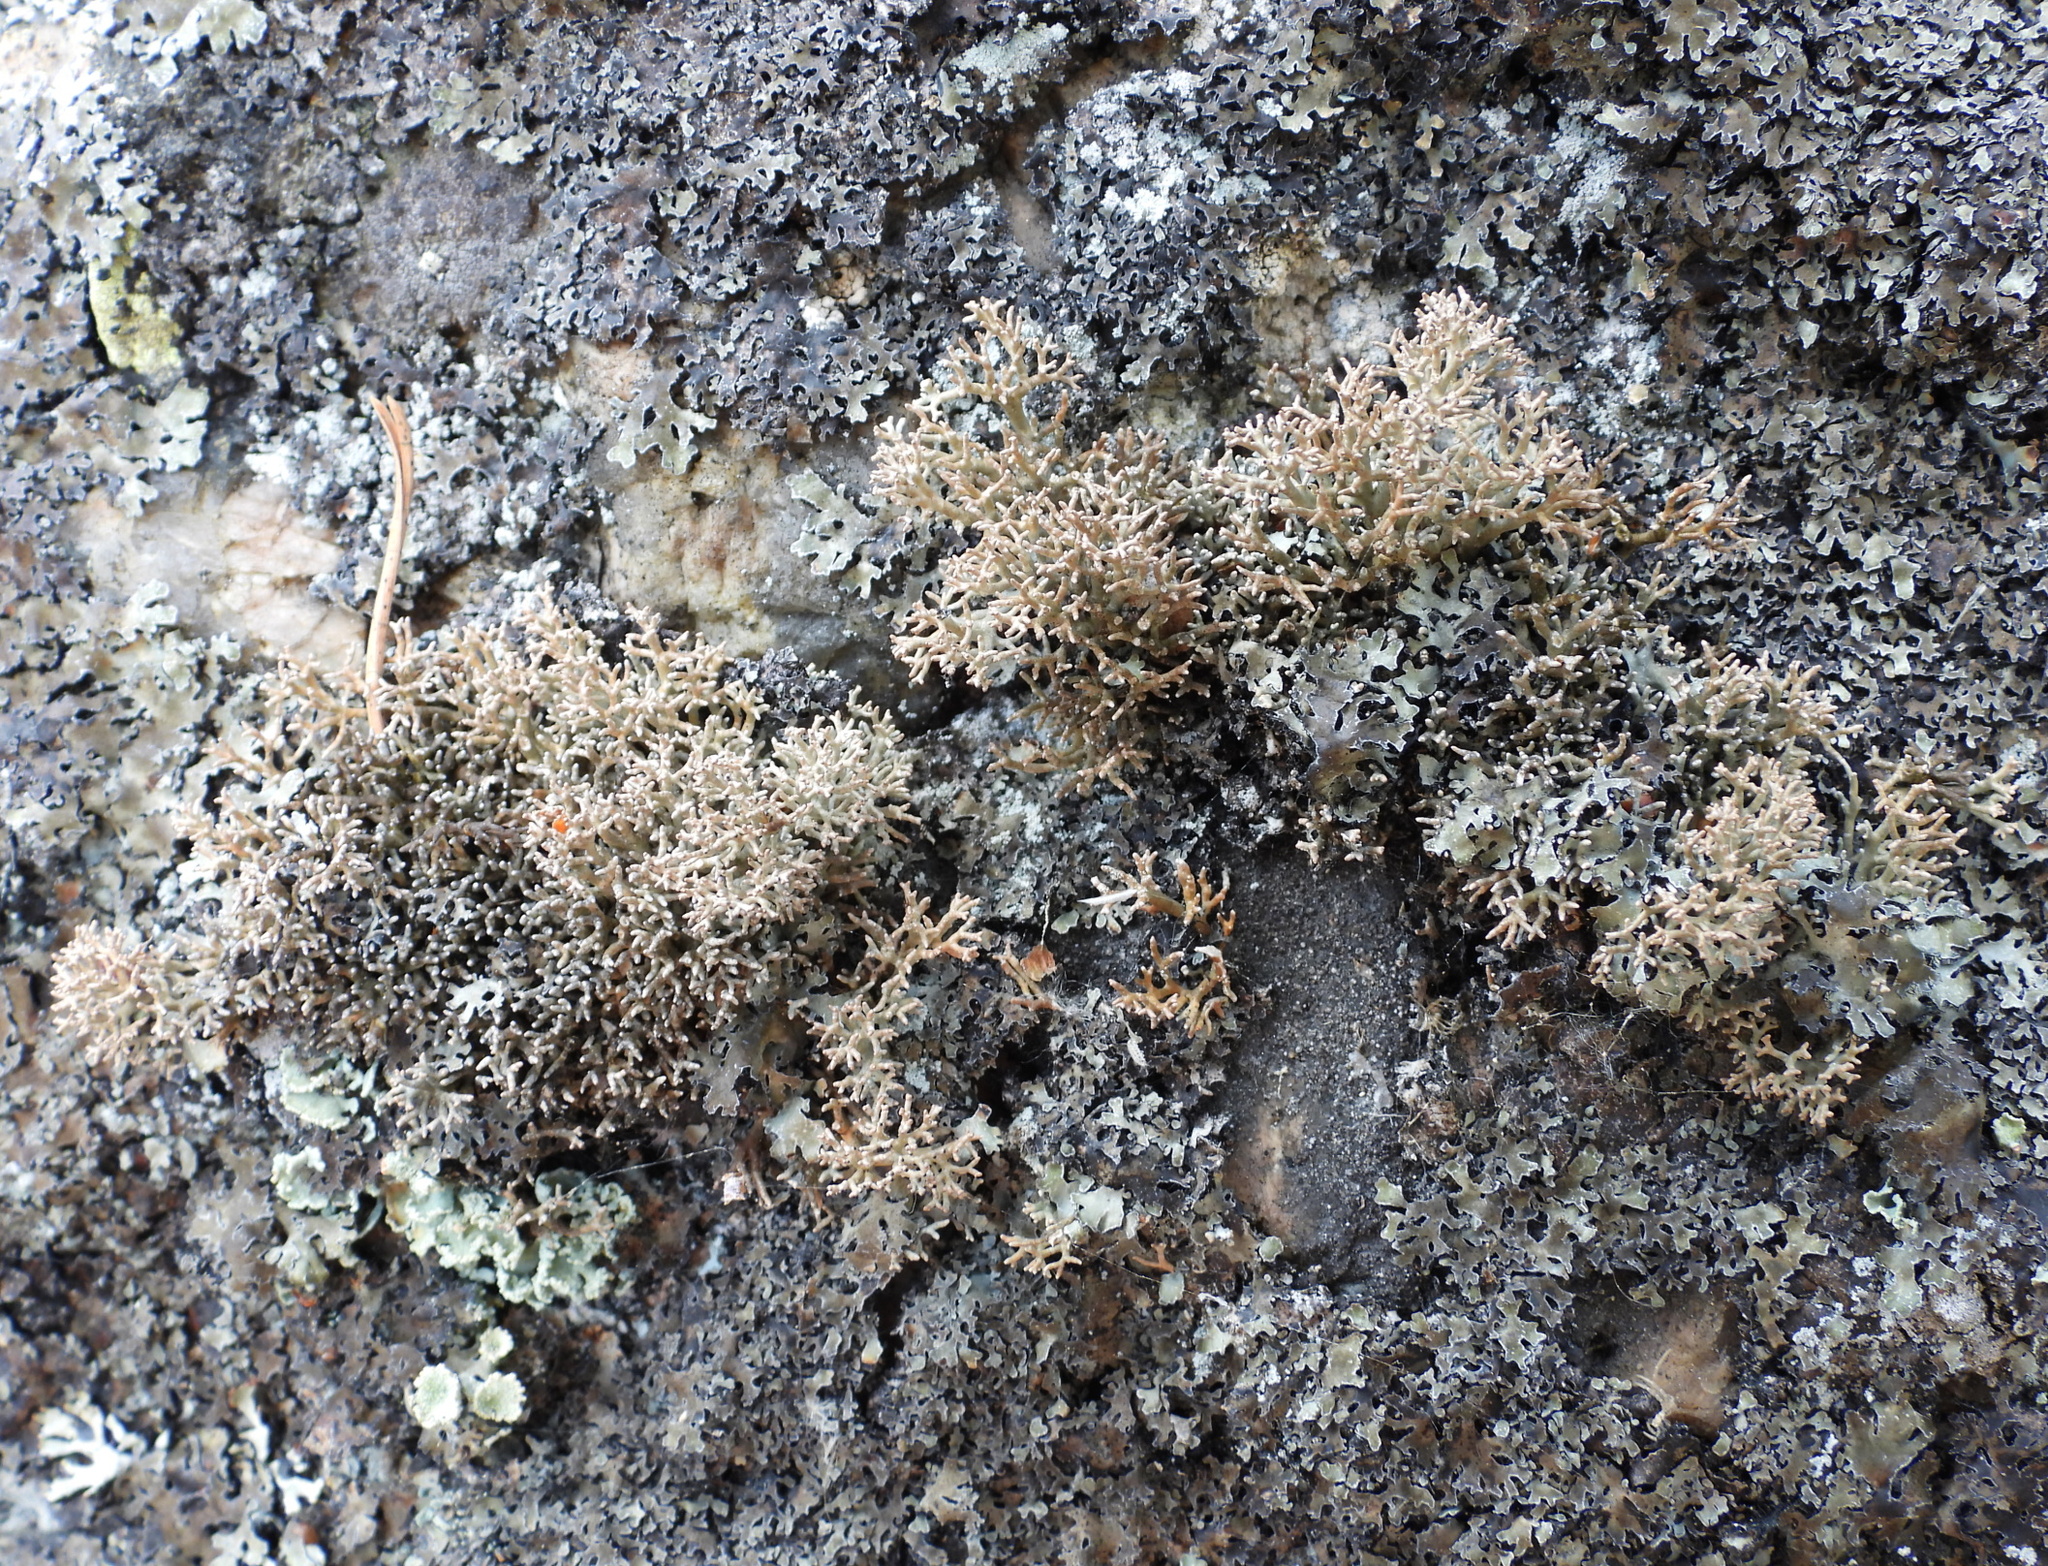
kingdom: Fungi
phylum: Ascomycota
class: Lecanoromycetes
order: Lecanorales
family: Sphaerophoraceae
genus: Sphaerophorus
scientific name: Sphaerophorus fragilis
